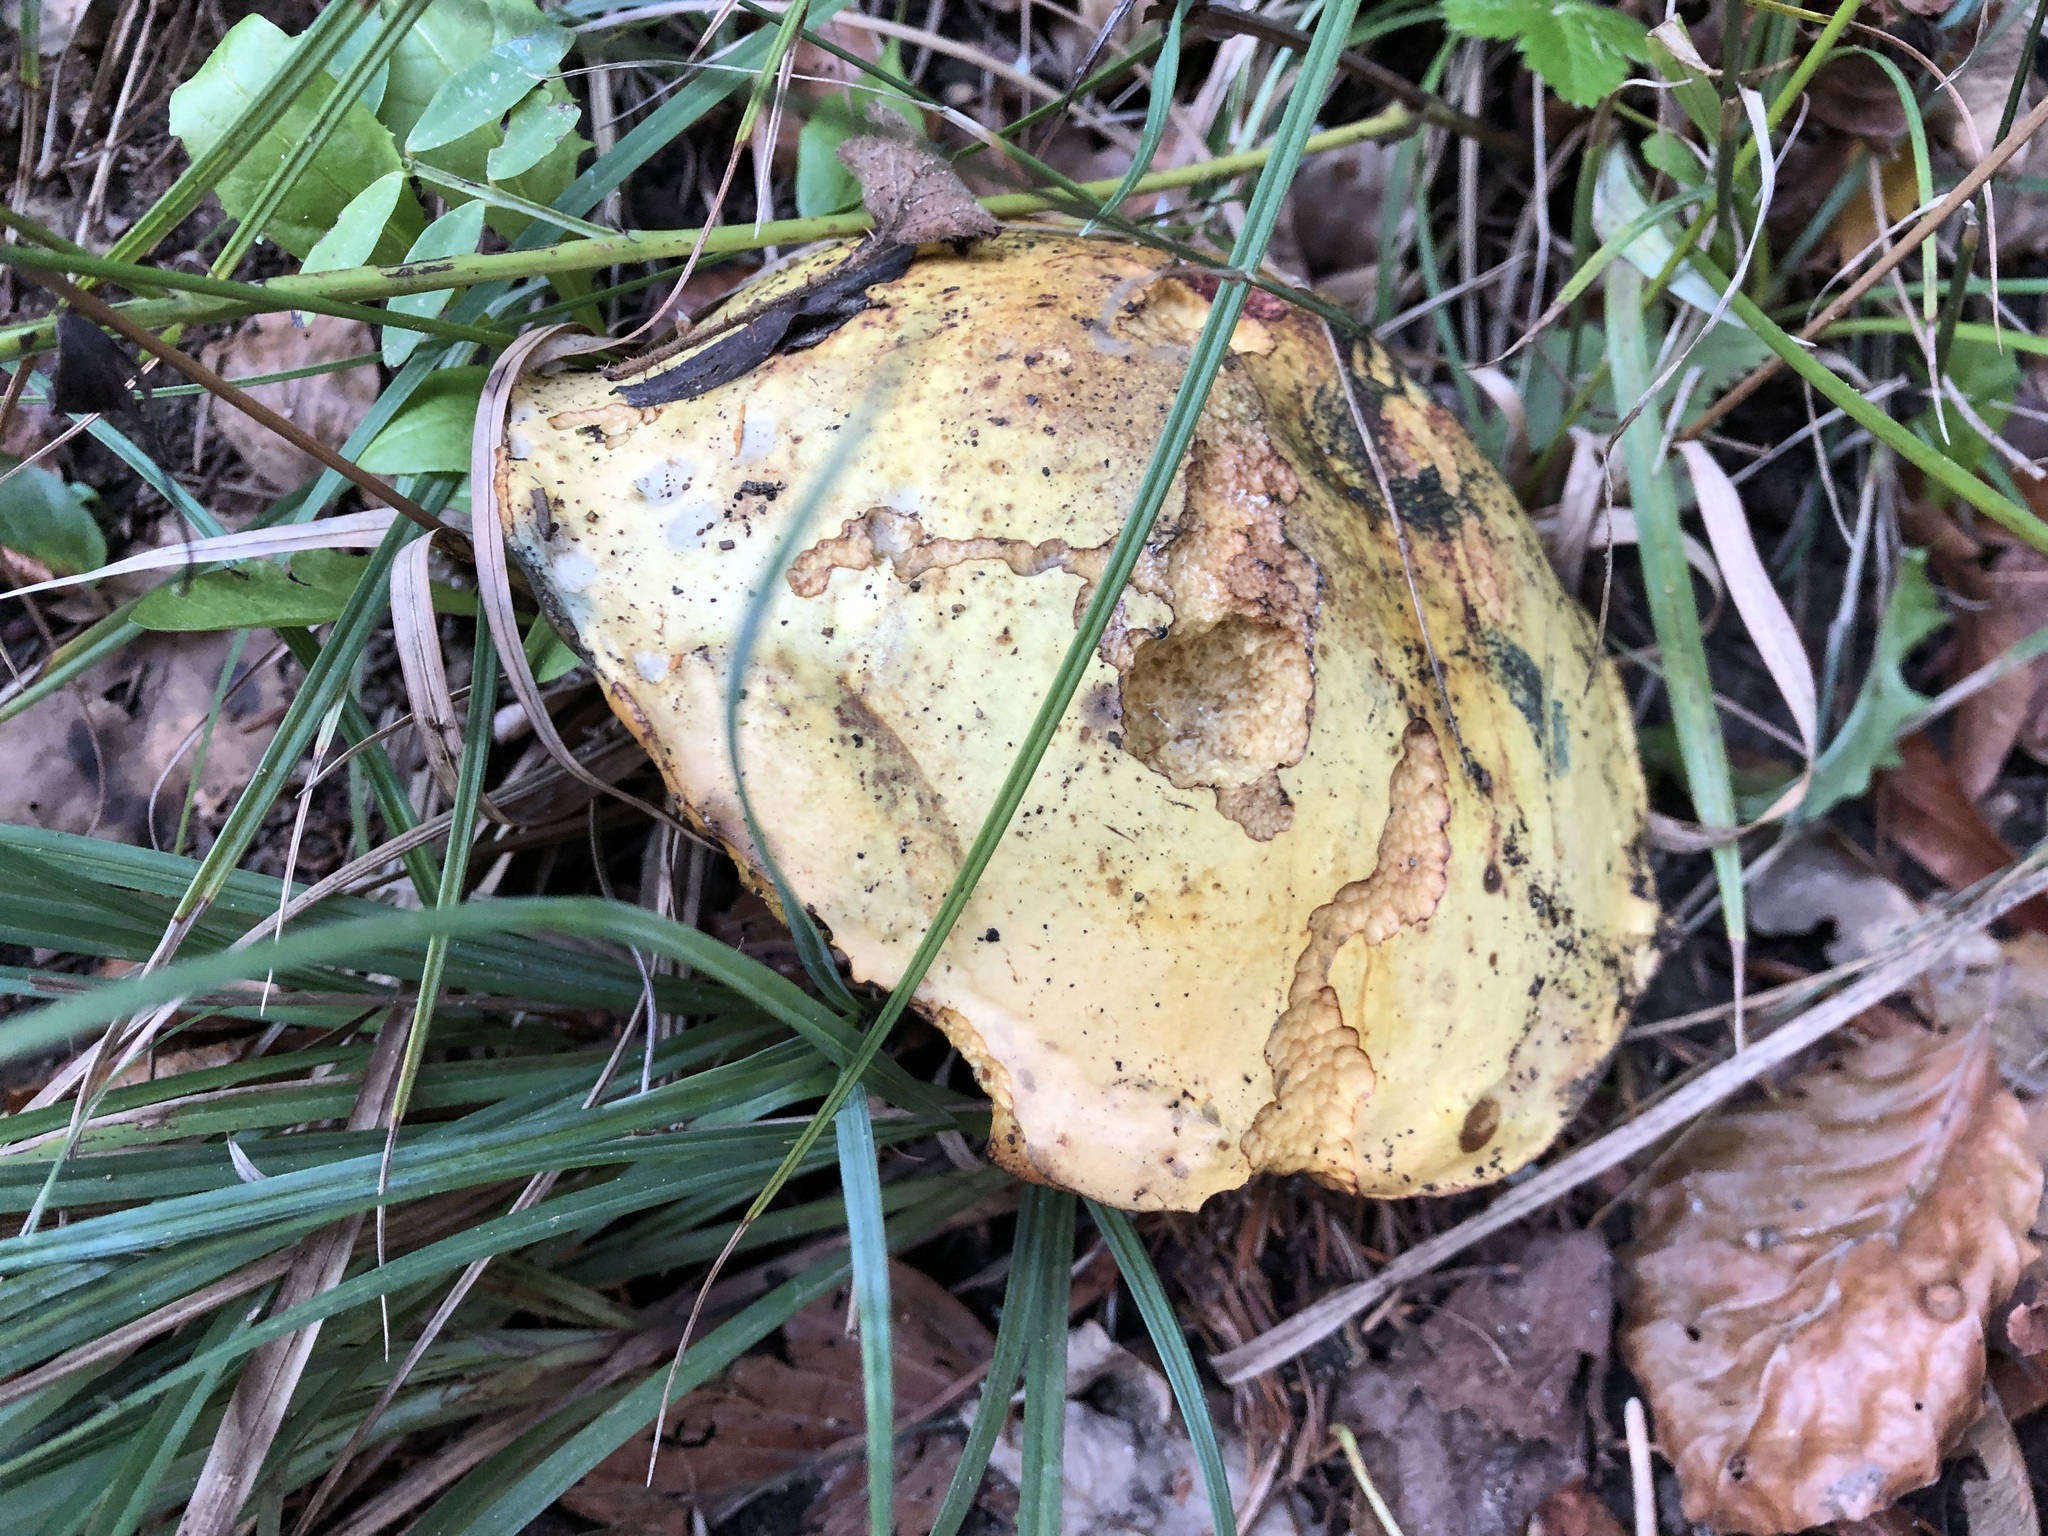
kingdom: Fungi
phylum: Basidiomycota
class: Agaricomycetes
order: Boletales
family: Boletaceae
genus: Suillellus
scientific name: Suillellus luridus
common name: Lurid bolete
